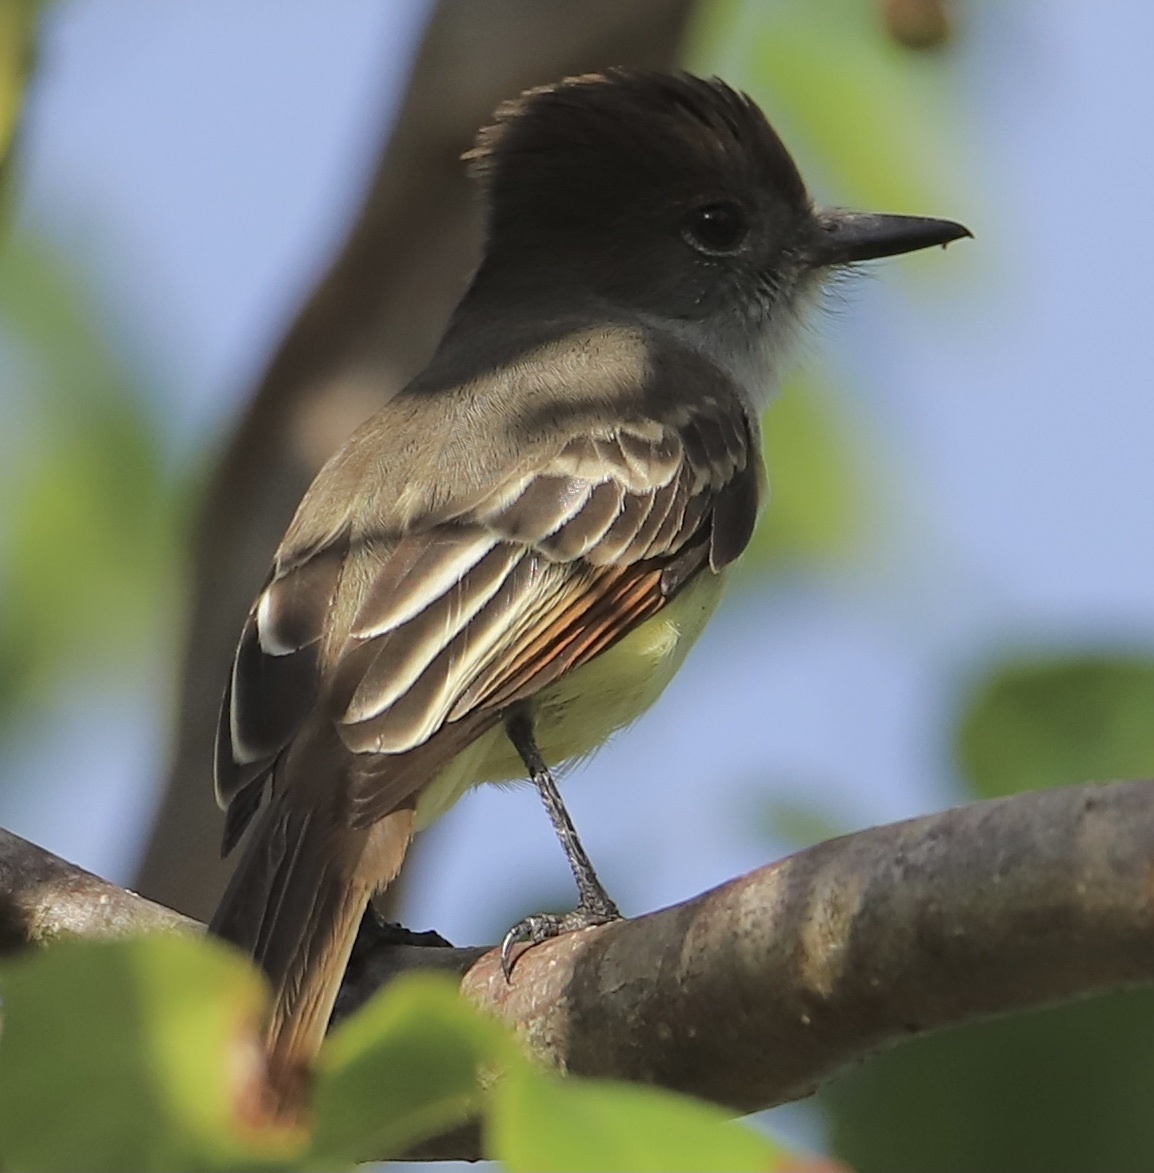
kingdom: Animalia
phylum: Chordata
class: Aves
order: Passeriformes
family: Tyrannidae
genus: Myiarchus
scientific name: Myiarchus stolidus
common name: Stolid flycatcher
